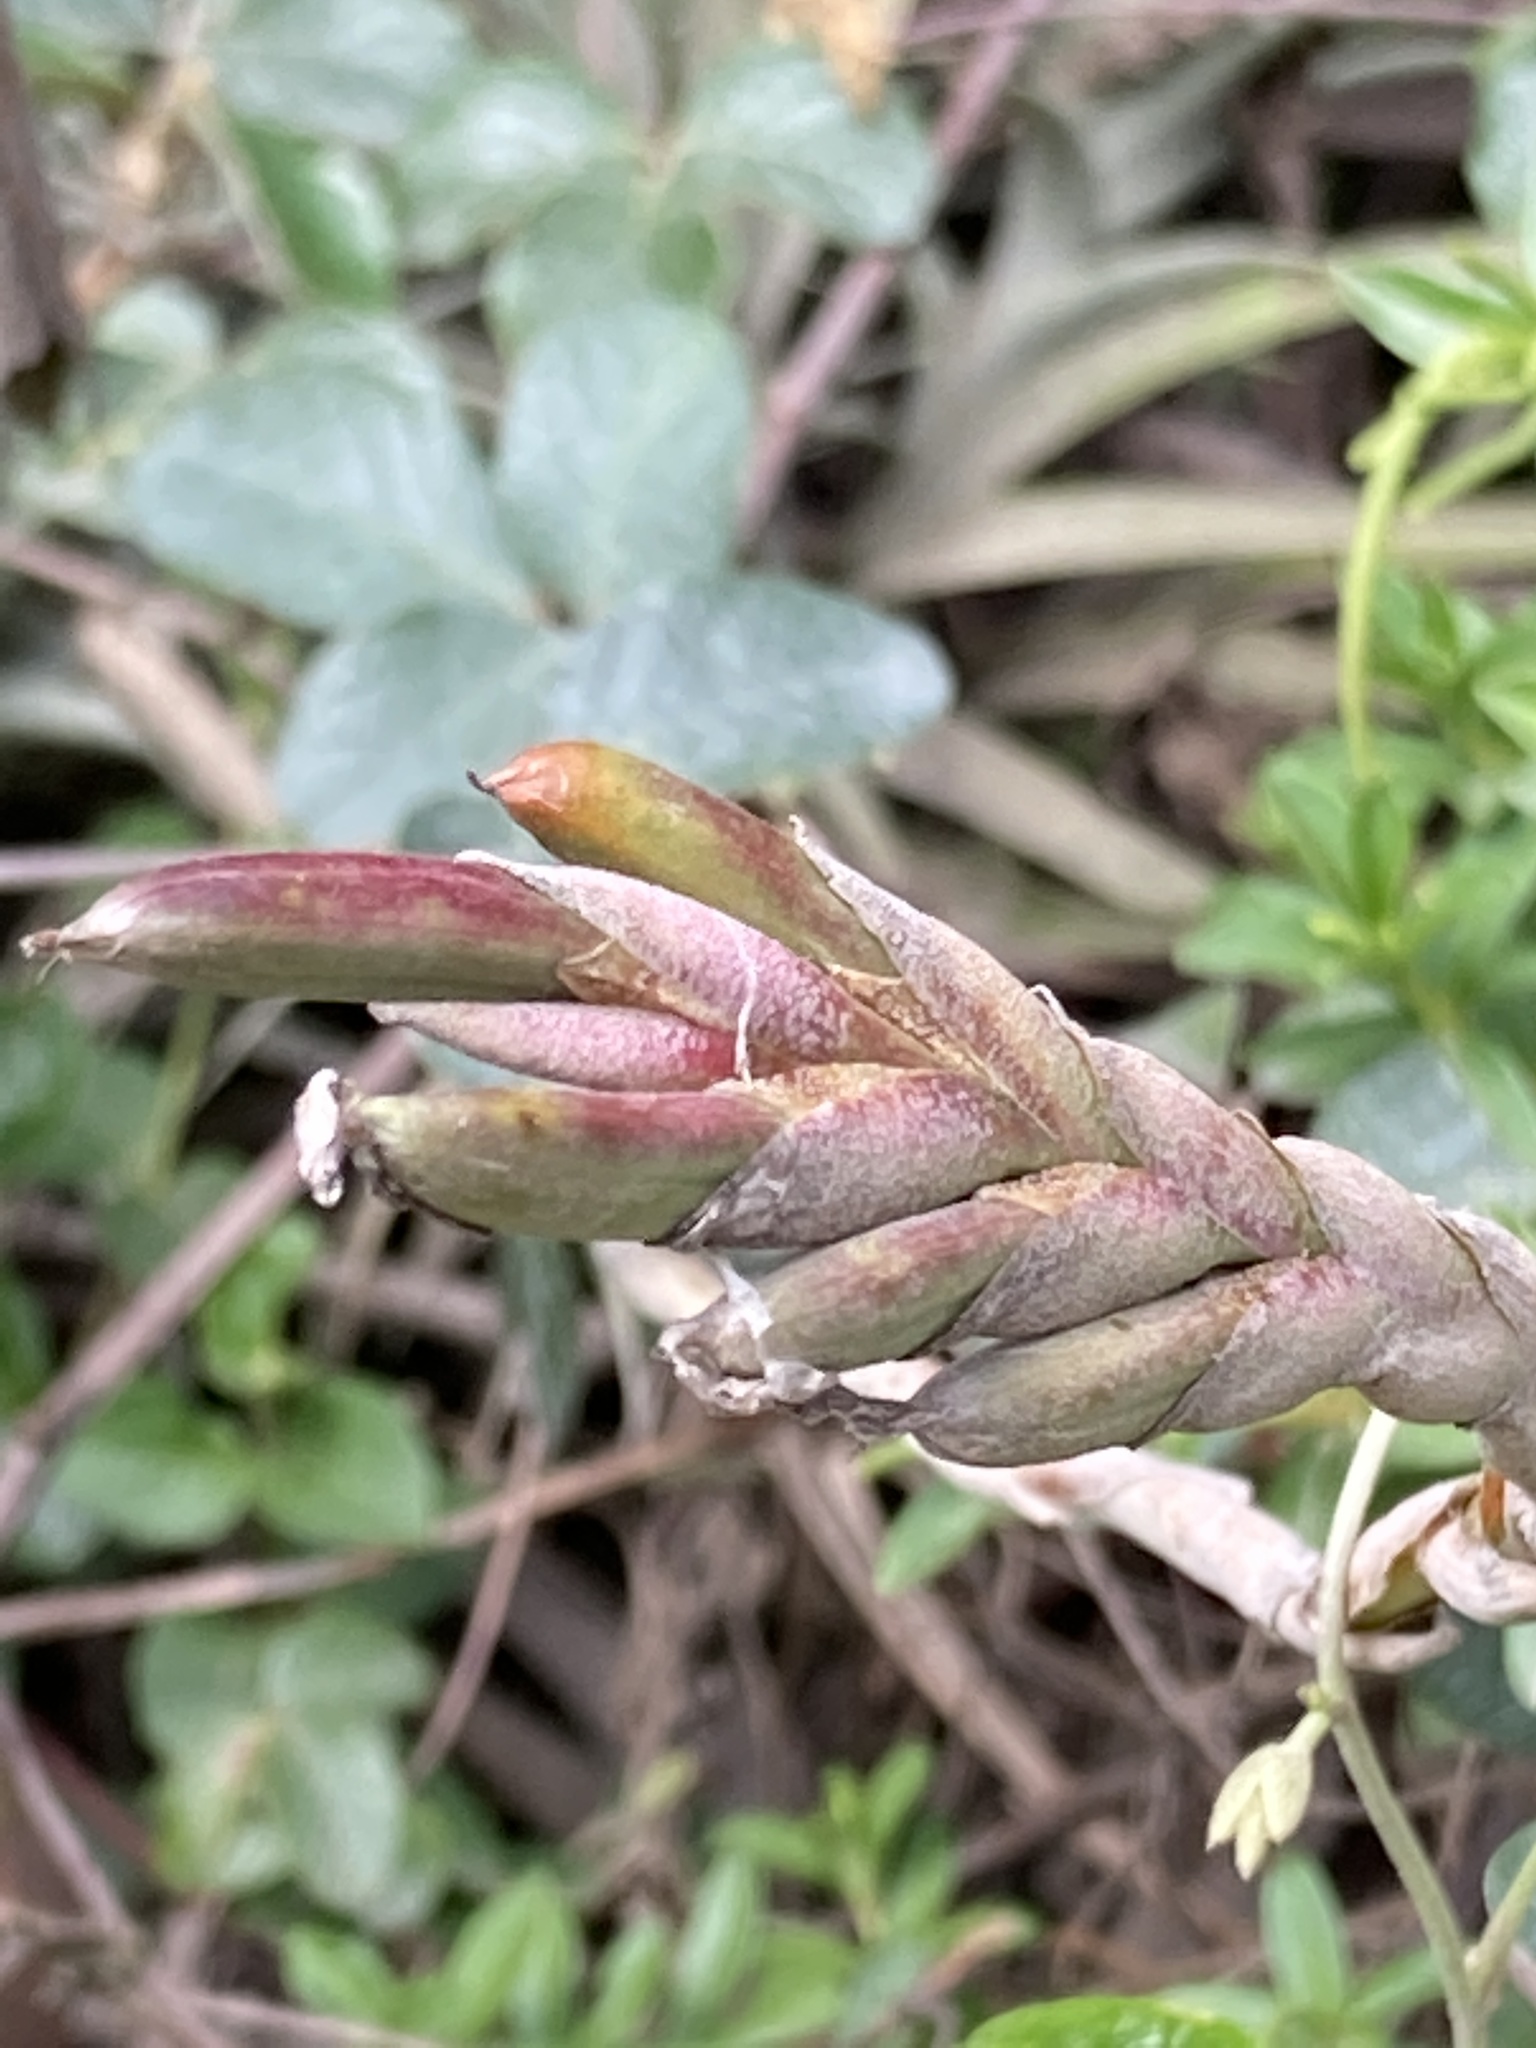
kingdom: Plantae
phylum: Tracheophyta
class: Liliopsida
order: Poales
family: Bromeliaceae
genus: Tillandsia
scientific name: Tillandsia incarnata
